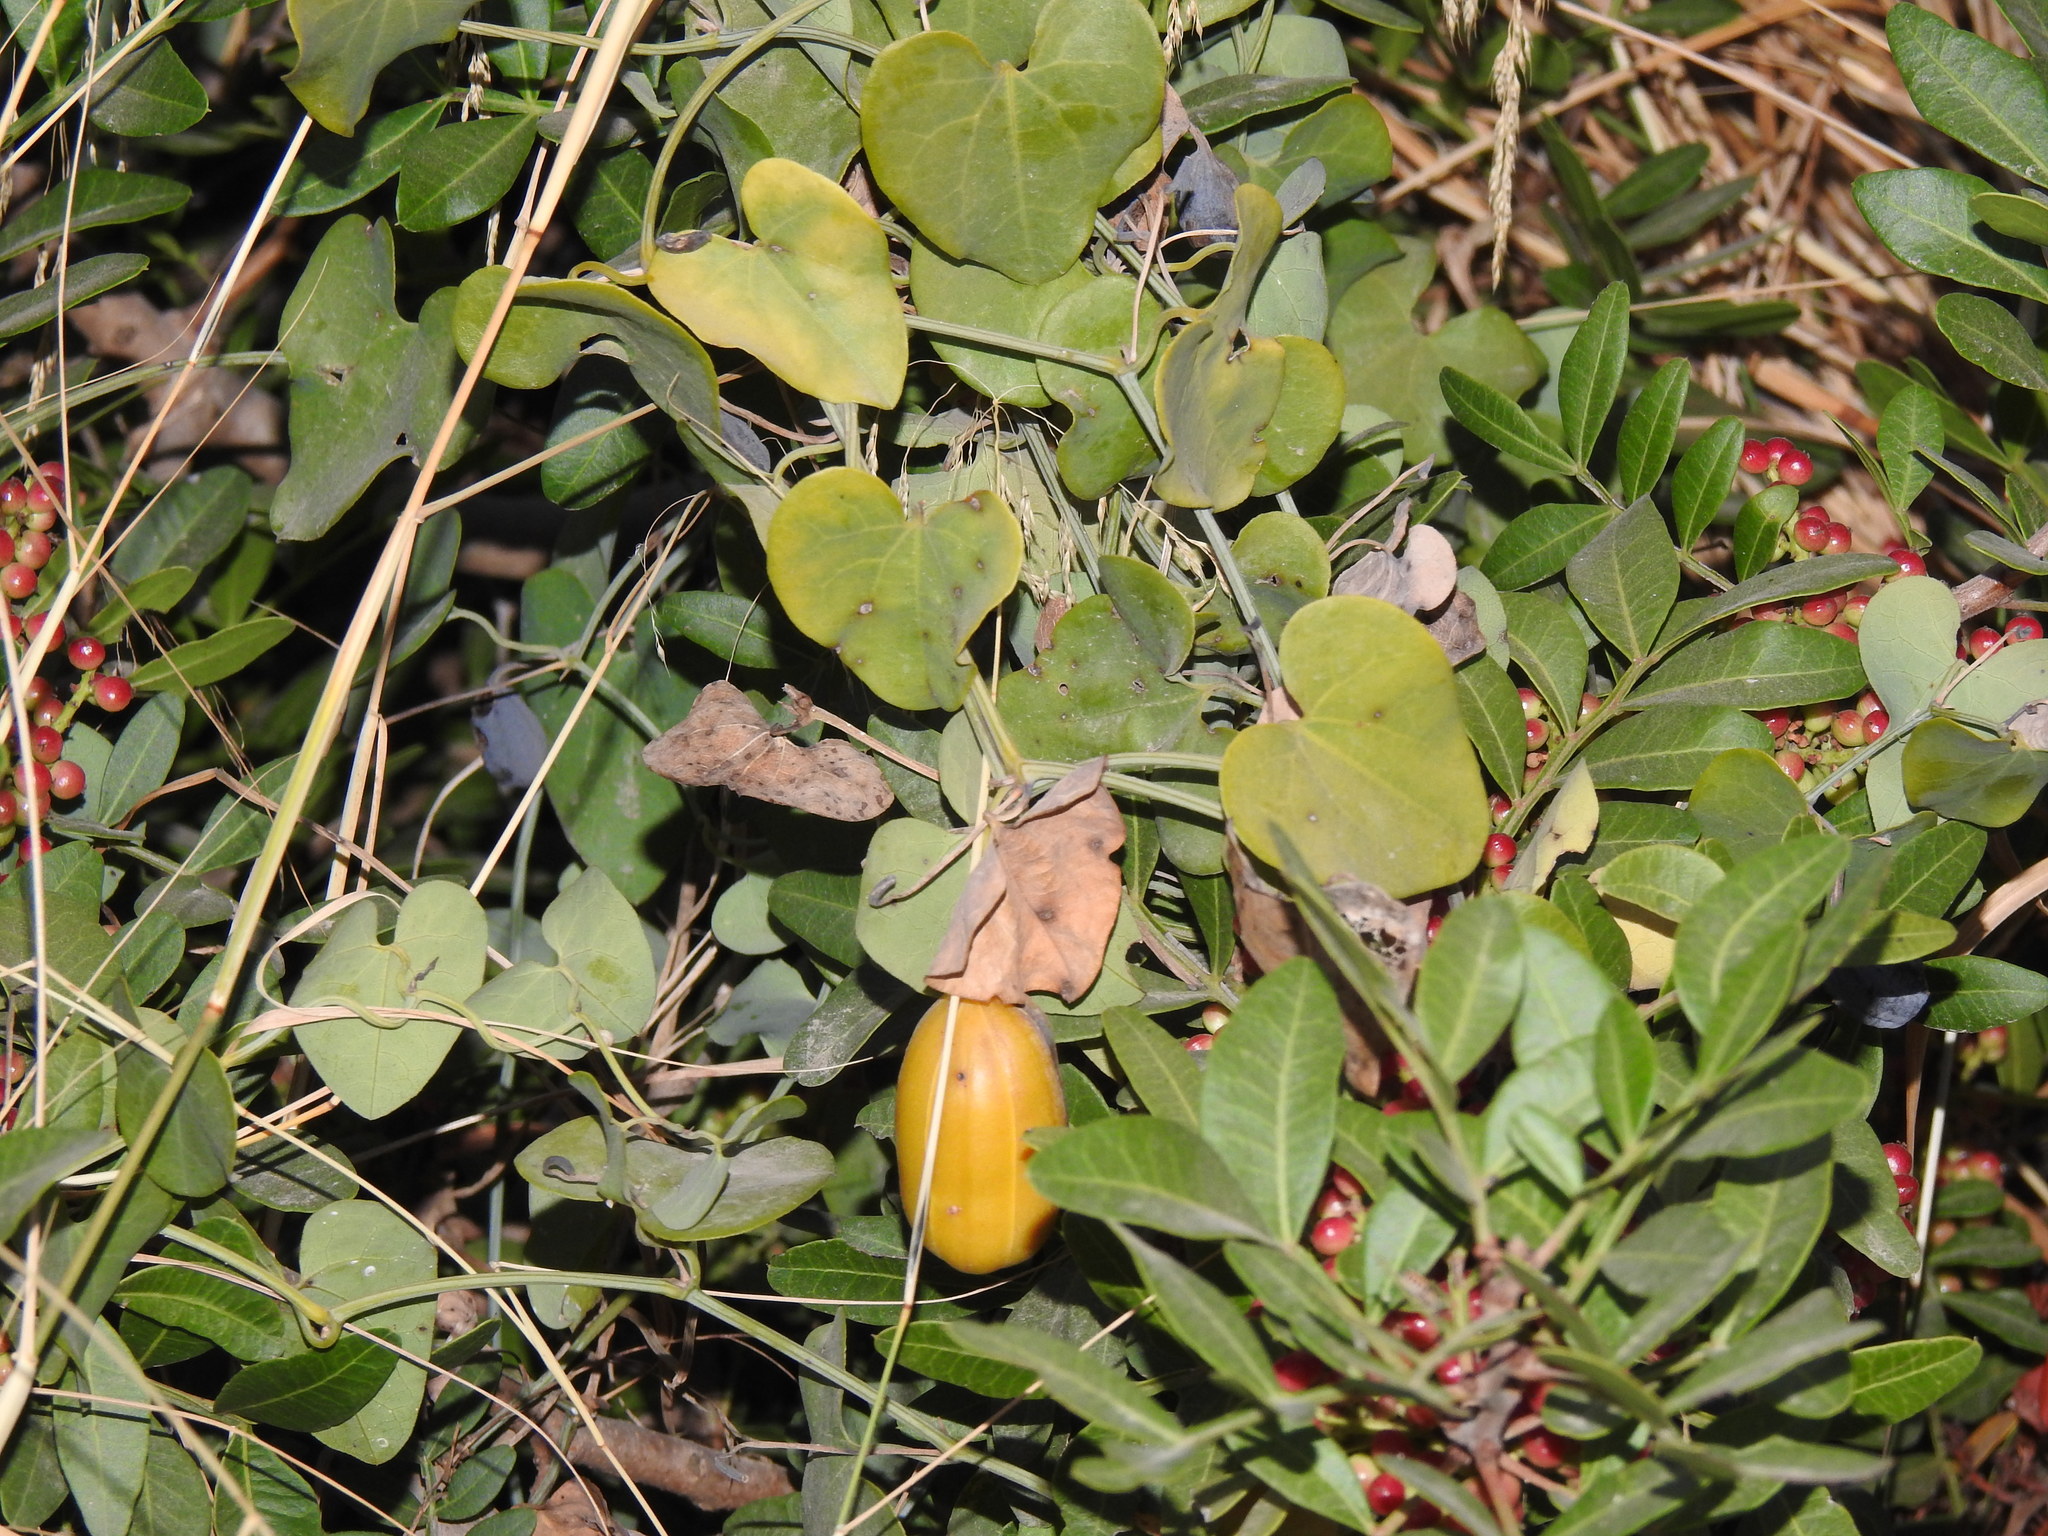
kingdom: Plantae
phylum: Tracheophyta
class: Magnoliopsida
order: Piperales
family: Aristolochiaceae
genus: Aristolochia
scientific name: Aristolochia baetica
